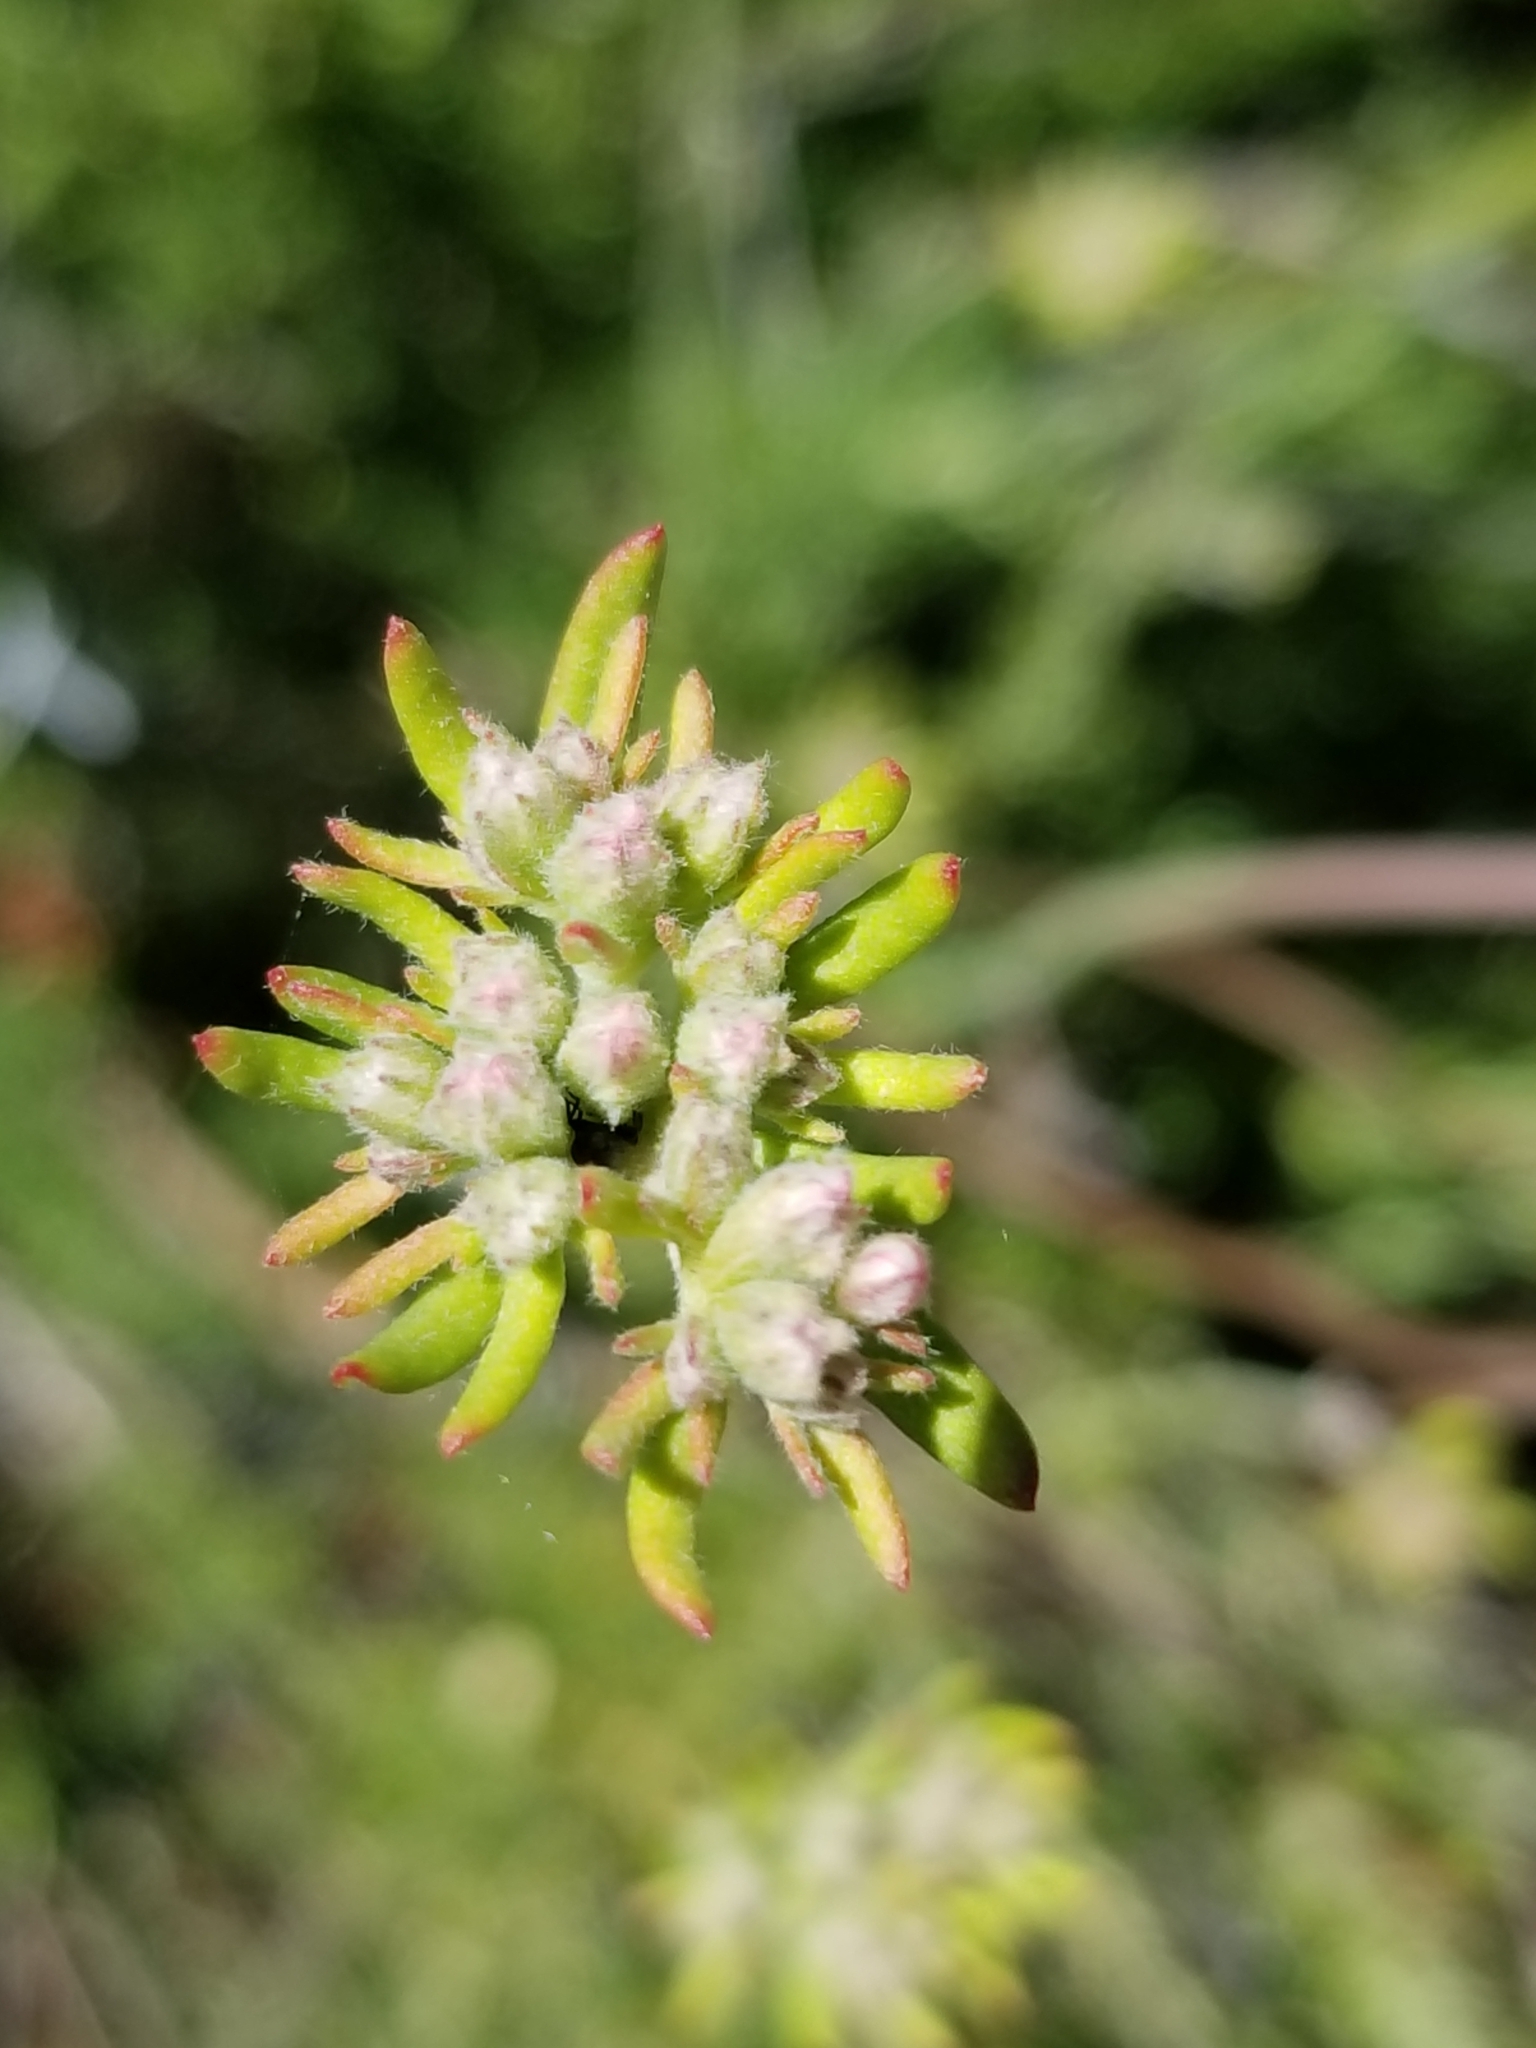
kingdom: Plantae
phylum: Tracheophyta
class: Magnoliopsida
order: Caryophyllales
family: Polygonaceae
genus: Eriogonum
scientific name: Eriogonum fasciculatum
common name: California wild buckwheat
